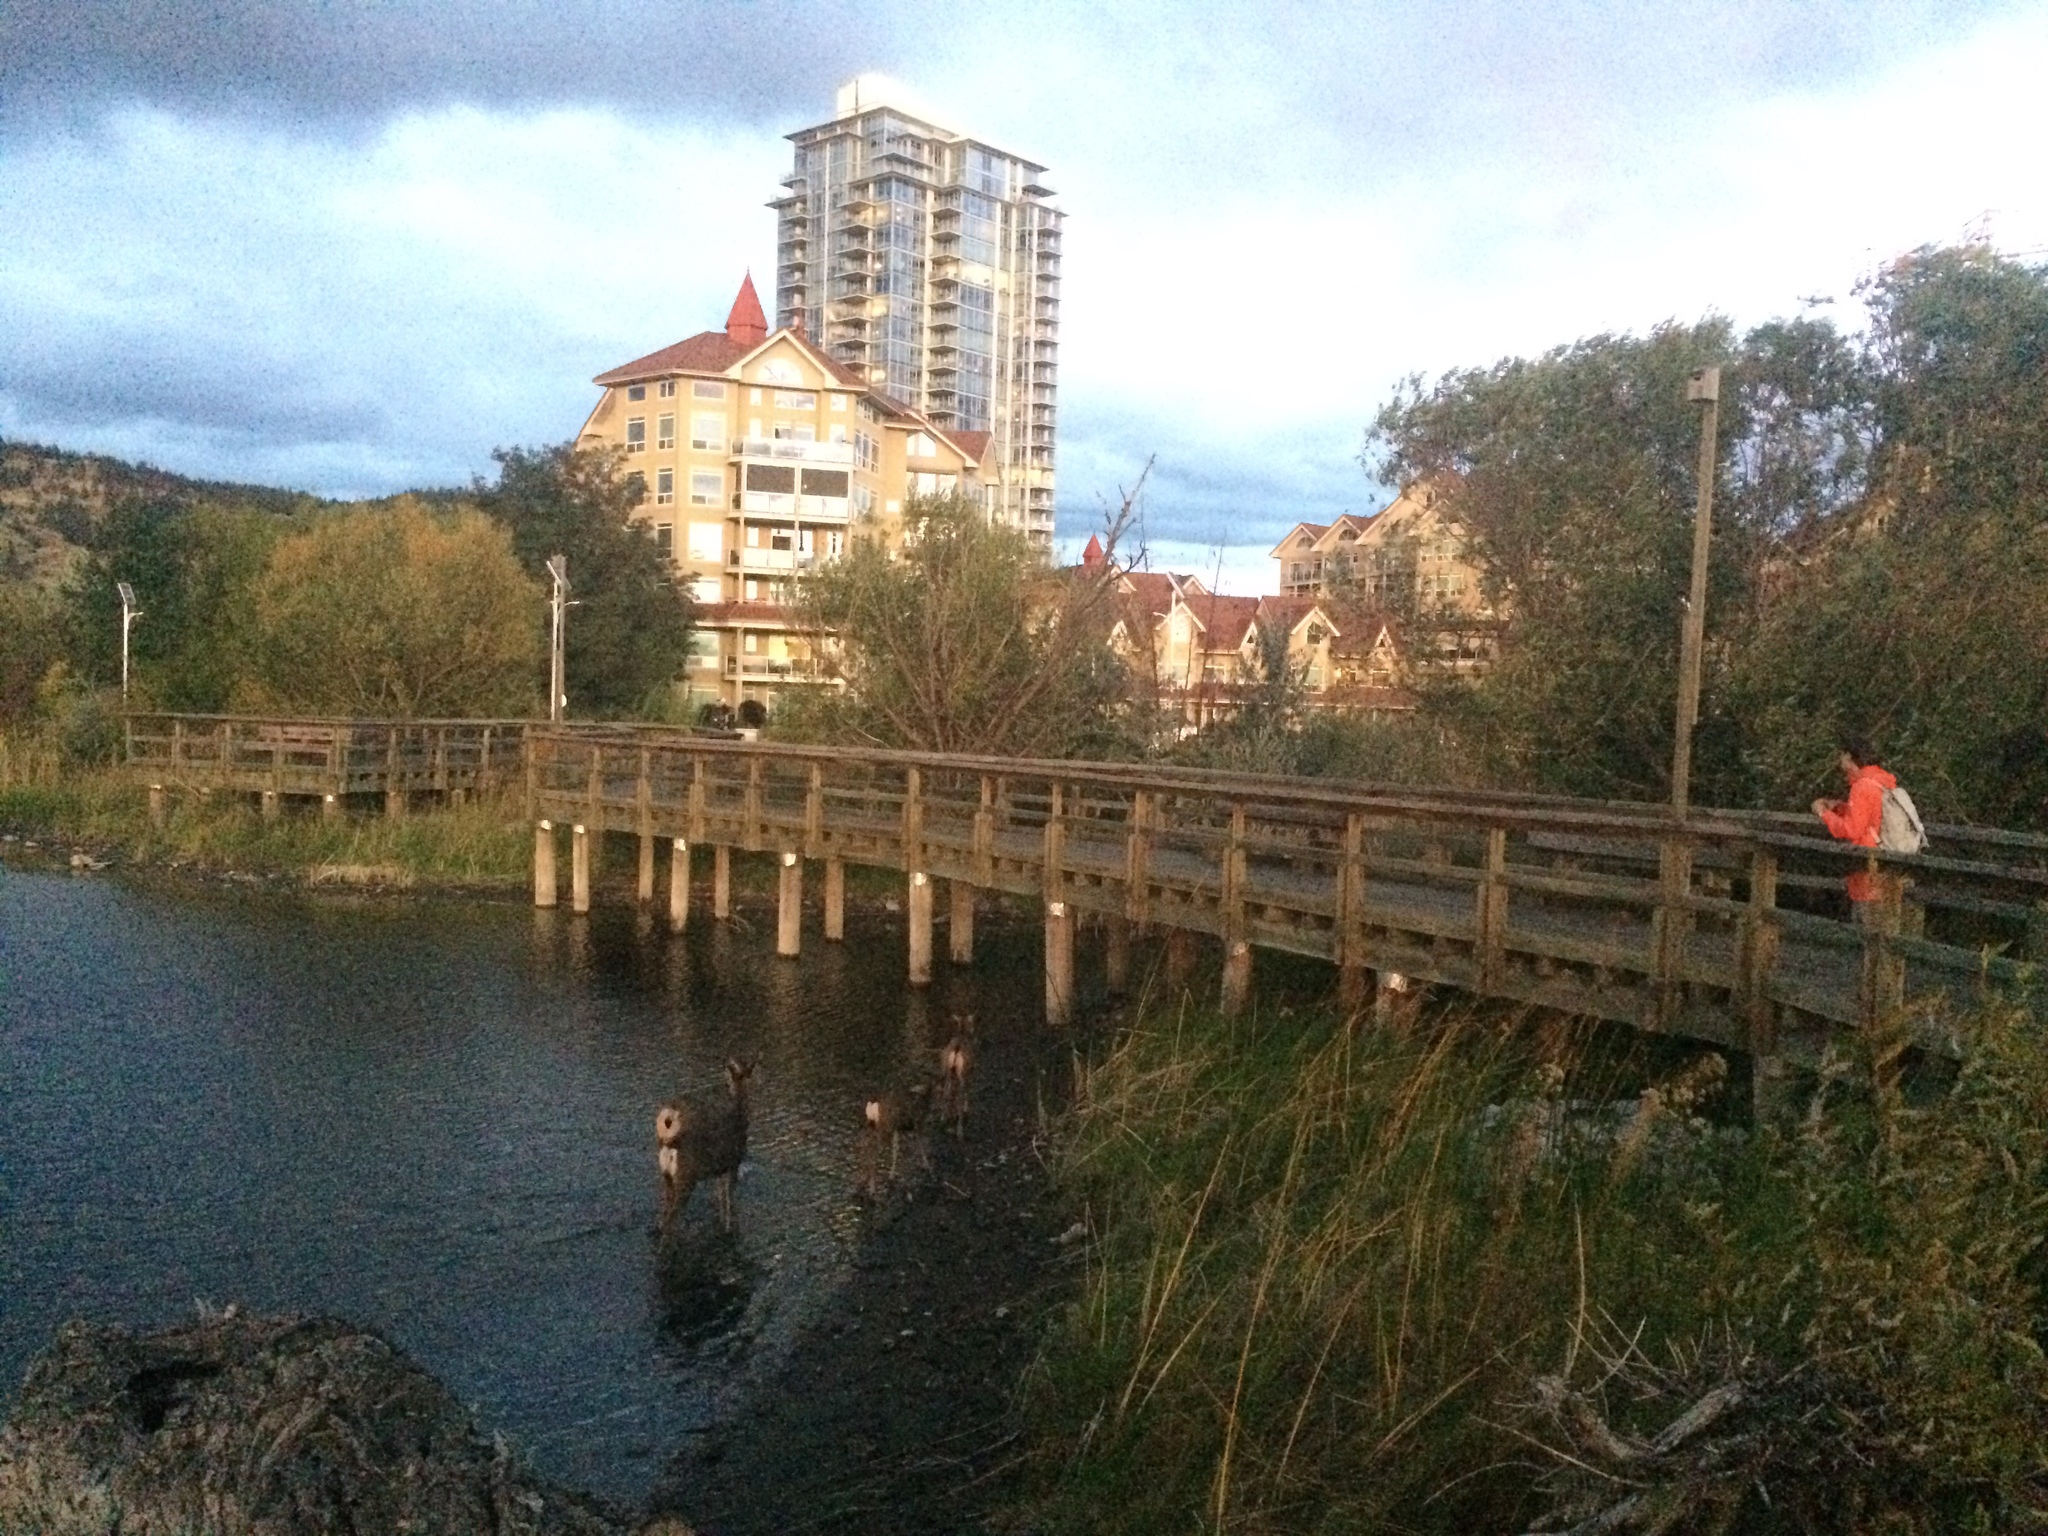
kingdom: Animalia
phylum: Chordata
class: Mammalia
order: Artiodactyla
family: Cervidae
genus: Odocoileus
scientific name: Odocoileus hemionus
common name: Mule deer
